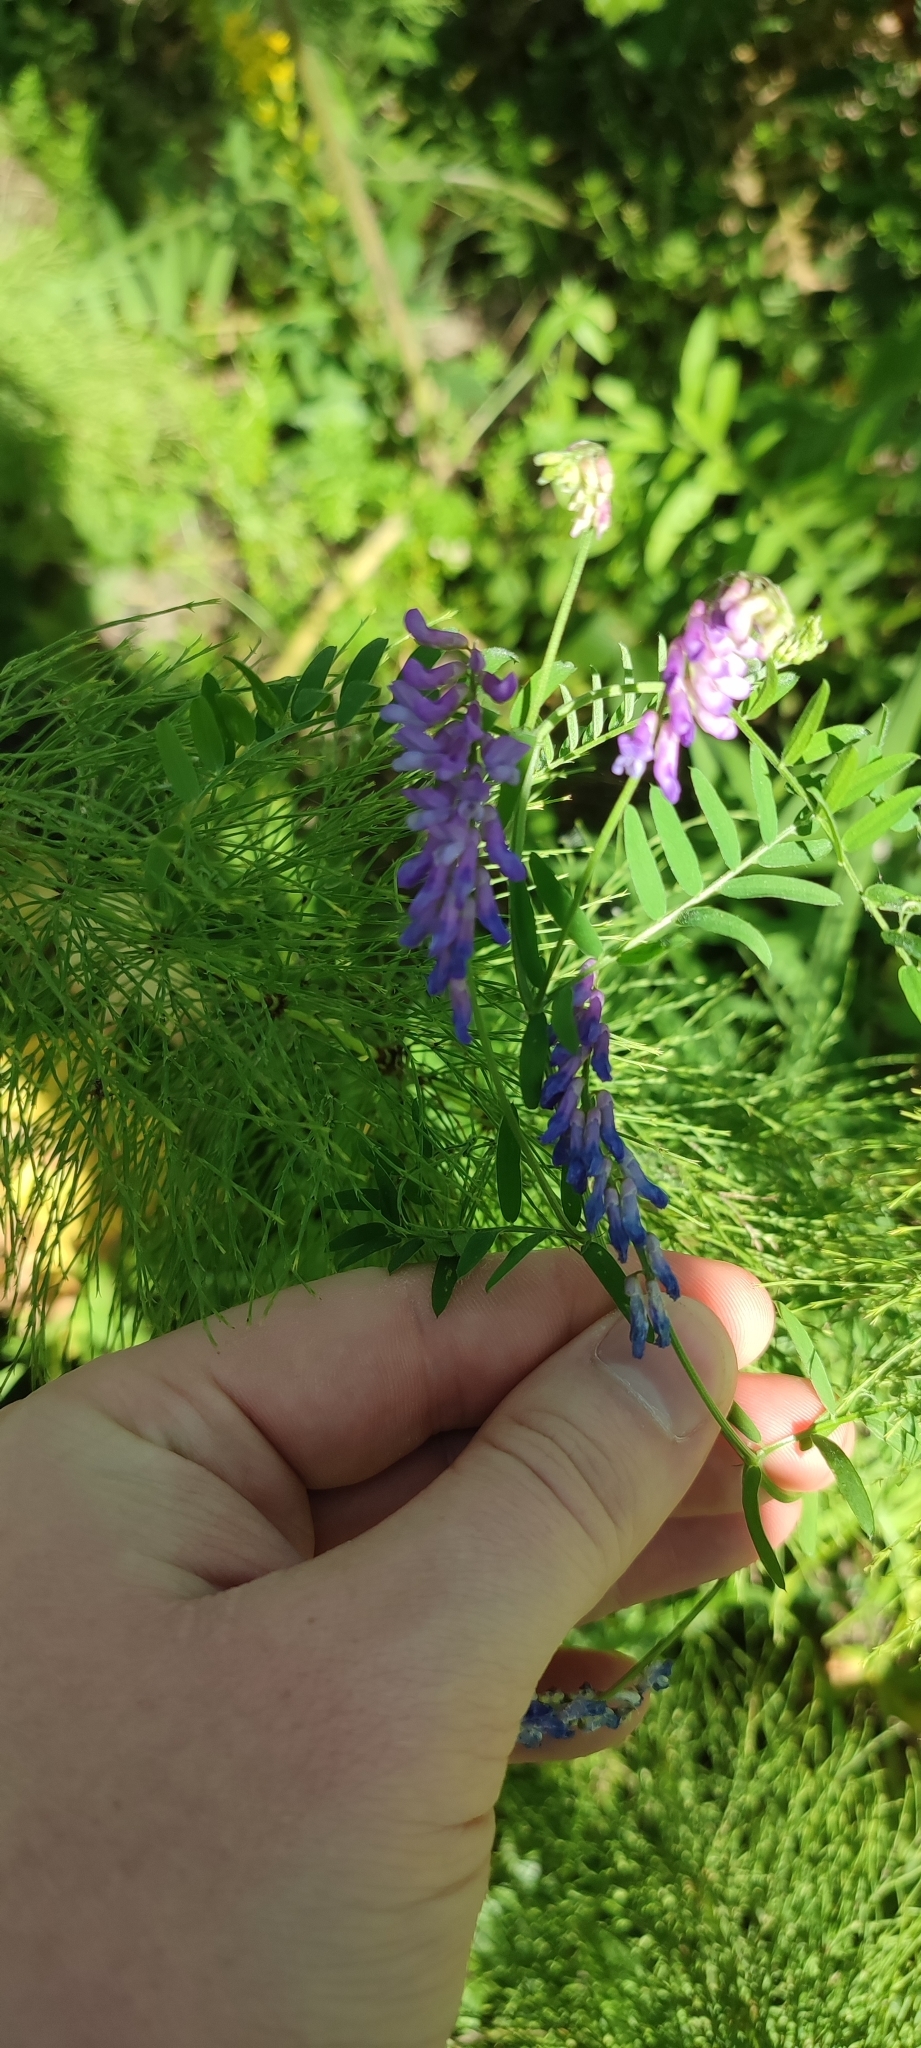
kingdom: Plantae
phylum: Tracheophyta
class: Magnoliopsida
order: Fabales
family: Fabaceae
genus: Vicia
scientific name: Vicia cracca
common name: Bird vetch
